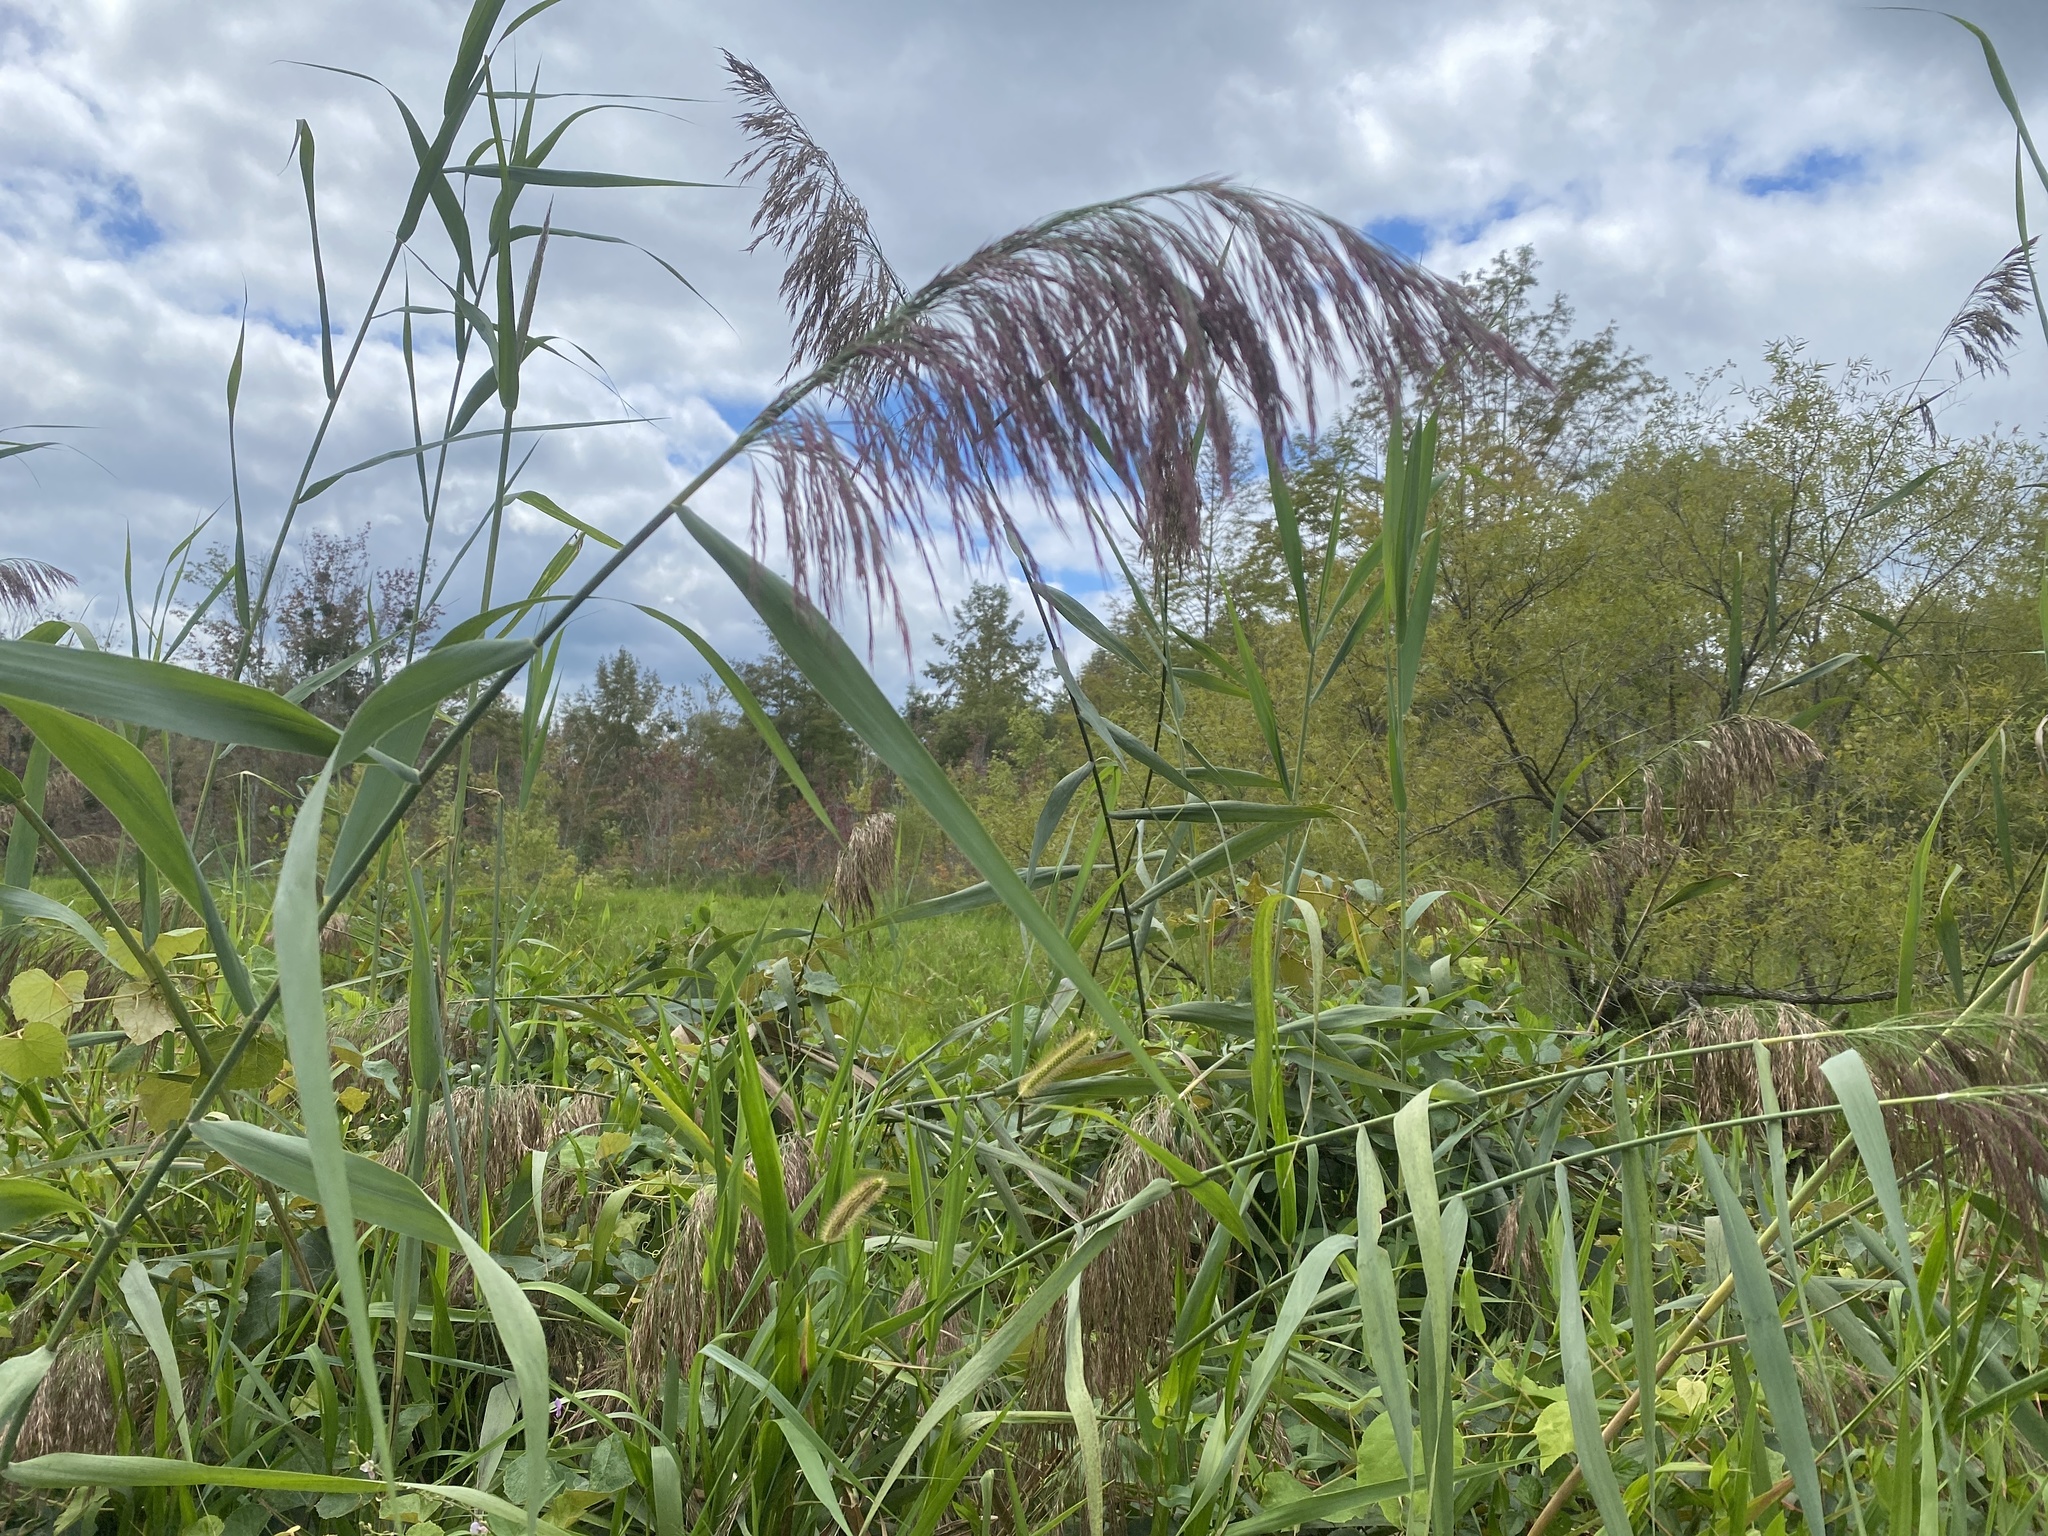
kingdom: Plantae
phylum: Tracheophyta
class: Liliopsida
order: Poales
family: Poaceae
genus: Phragmites
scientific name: Phragmites australis
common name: Common reed
